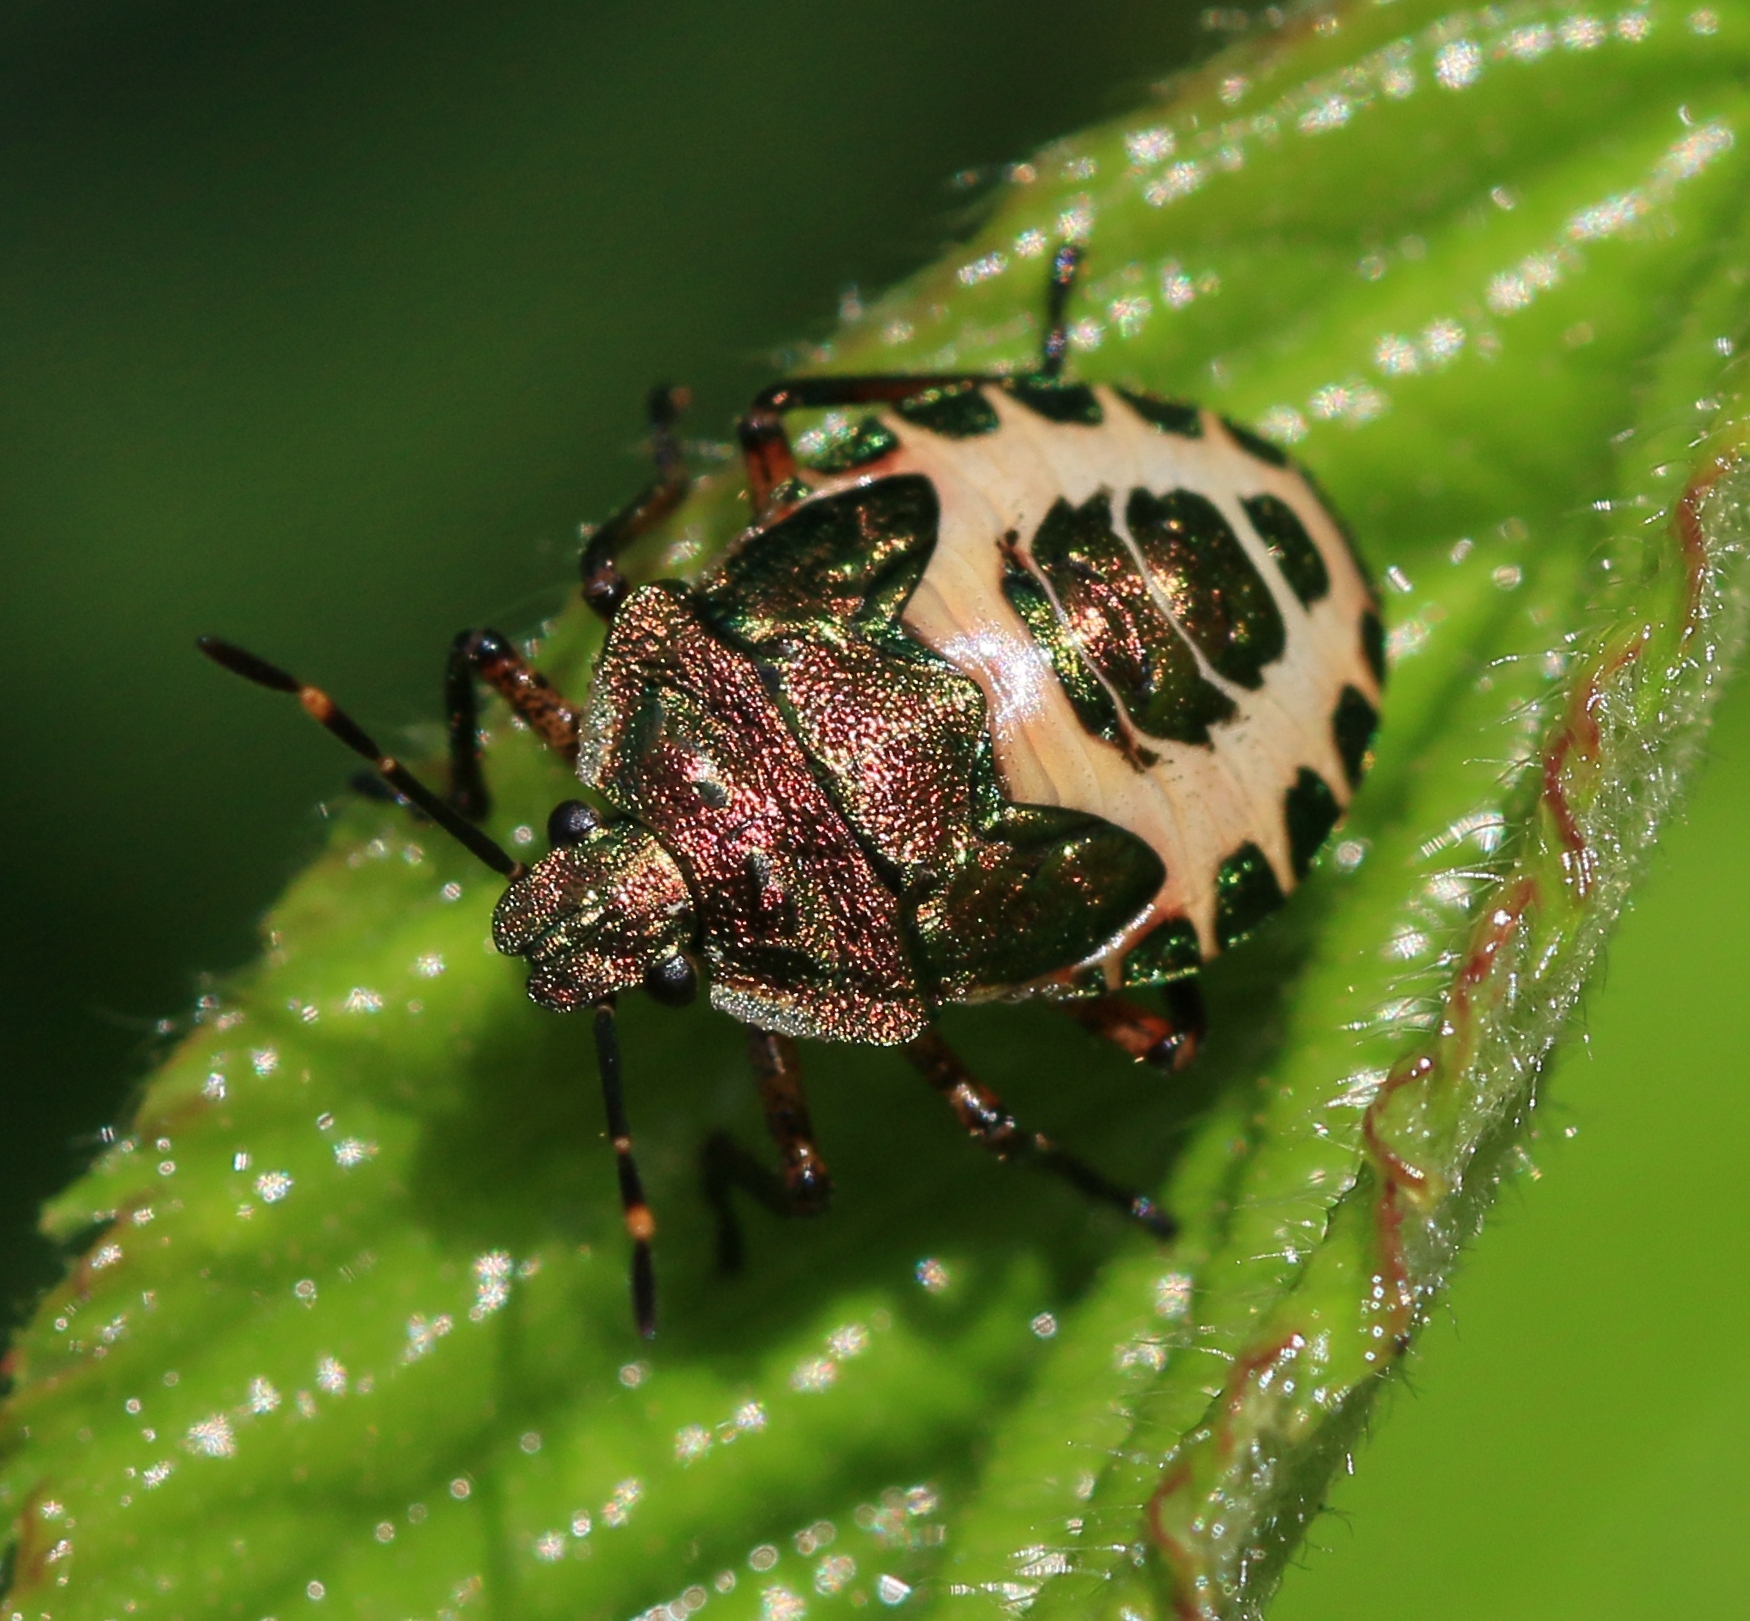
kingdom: Animalia
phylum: Arthropoda
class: Insecta
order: Hemiptera
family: Pentatomidae
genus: Troilus
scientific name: Troilus luridus
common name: Bronze shieldbug
